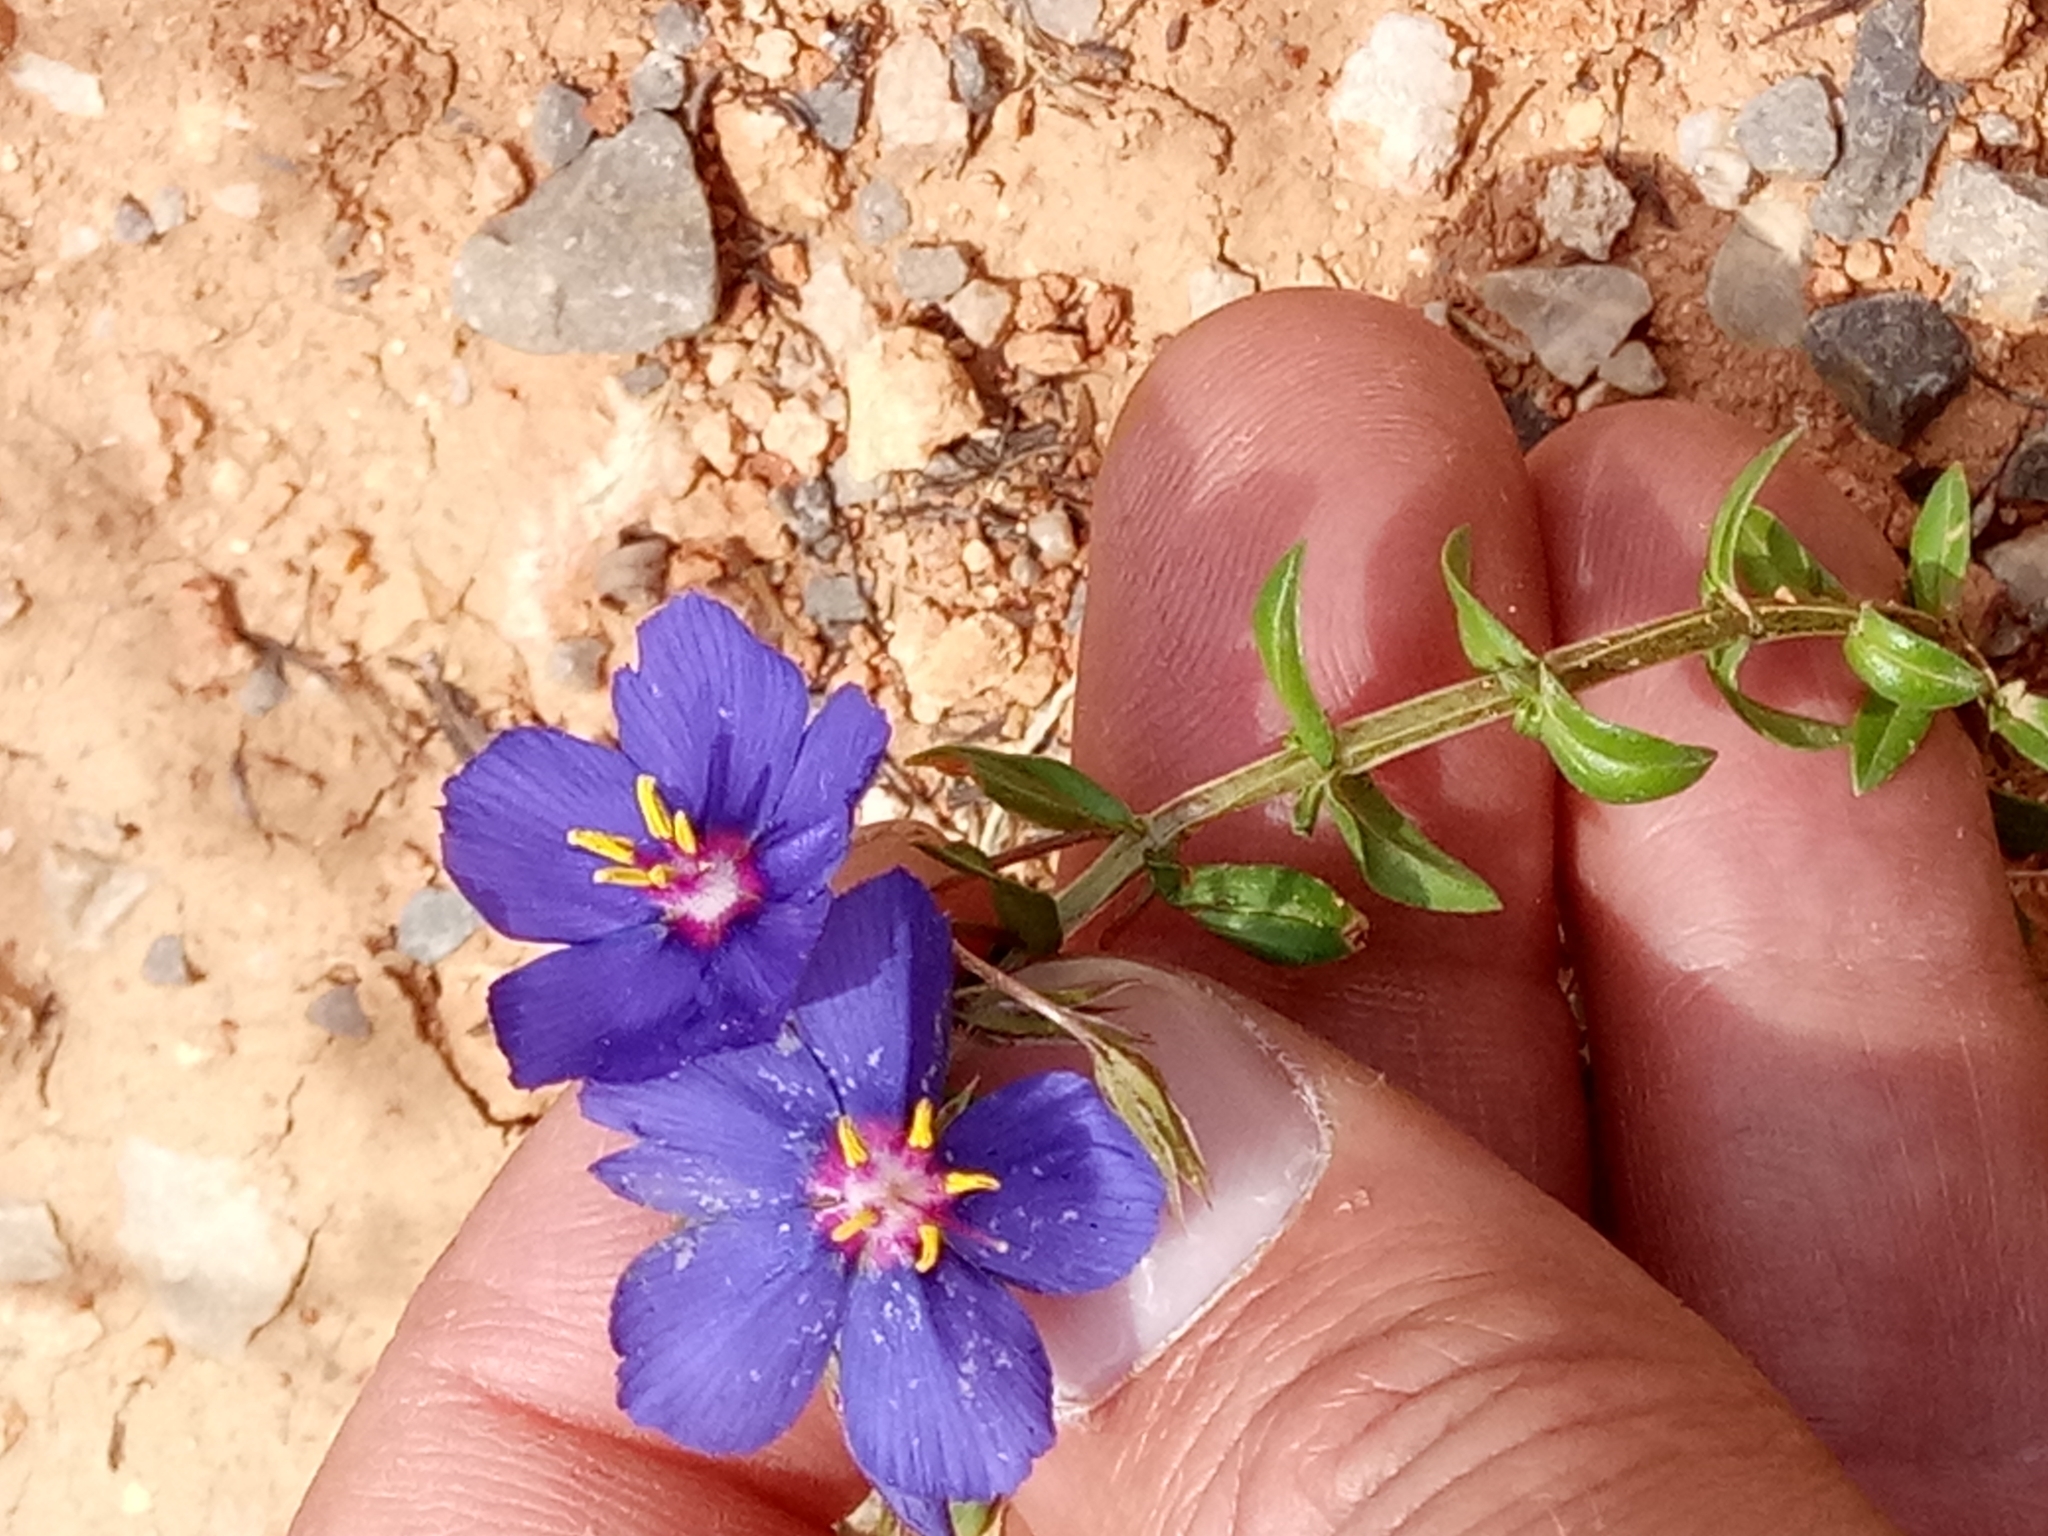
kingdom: Plantae
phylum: Tracheophyta
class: Magnoliopsida
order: Ericales
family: Primulaceae
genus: Lysimachia
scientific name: Lysimachia monelli
